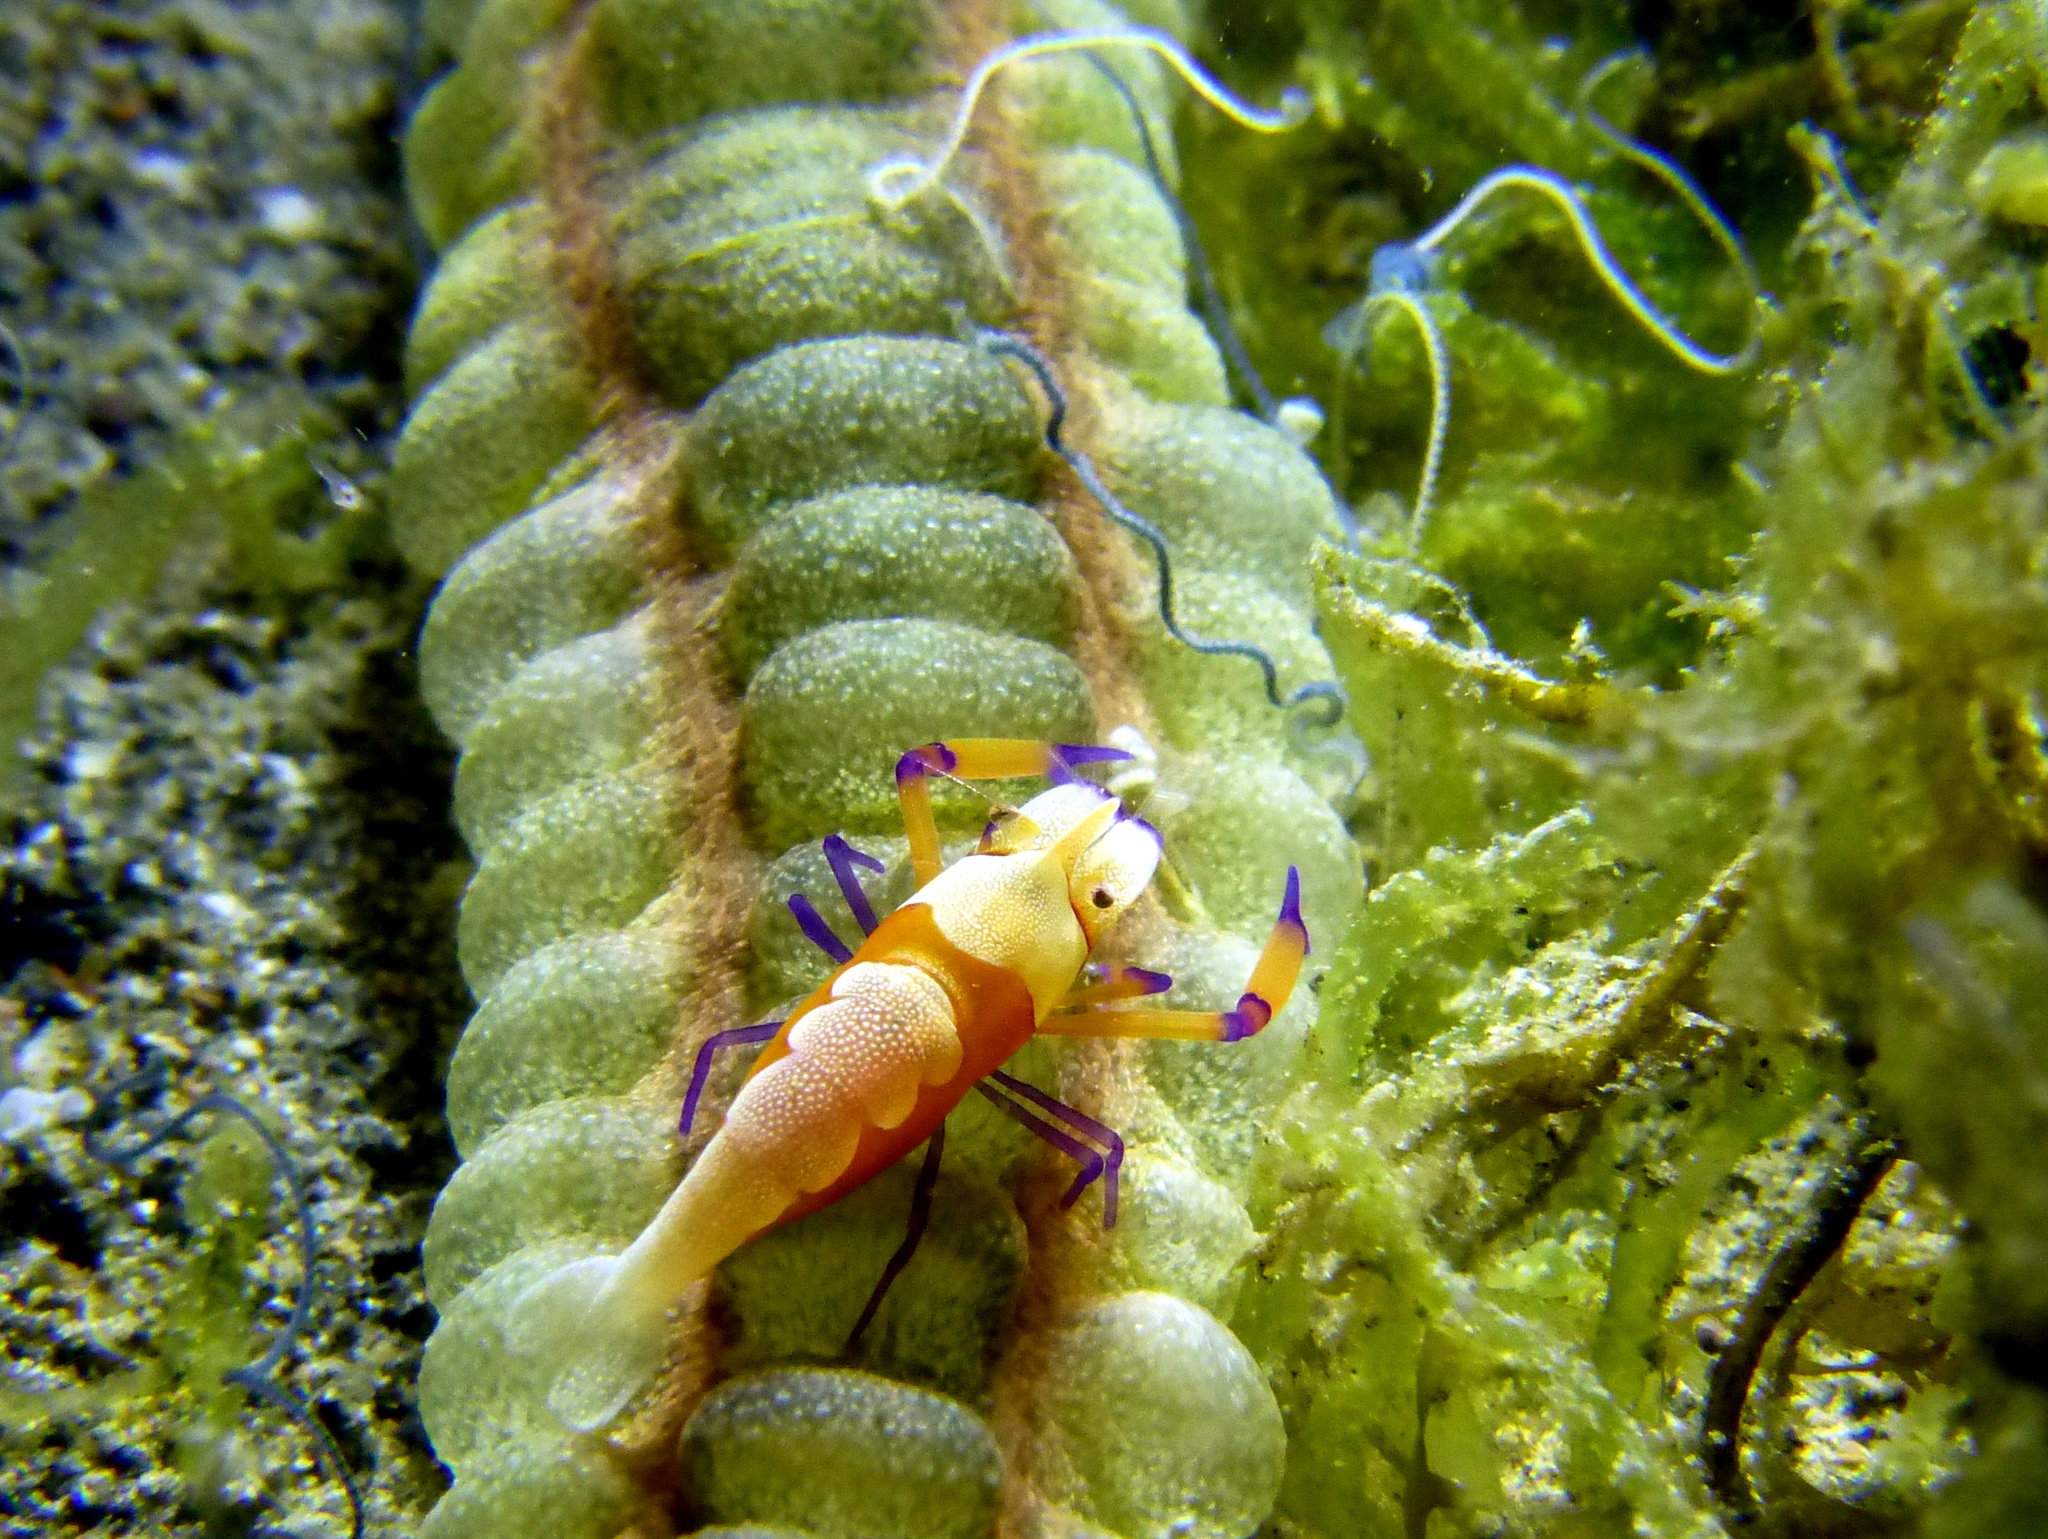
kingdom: Animalia
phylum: Arthropoda
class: Malacostraca
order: Decapoda
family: Palaemonidae
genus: Periclimenes
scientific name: Periclimenes rex
